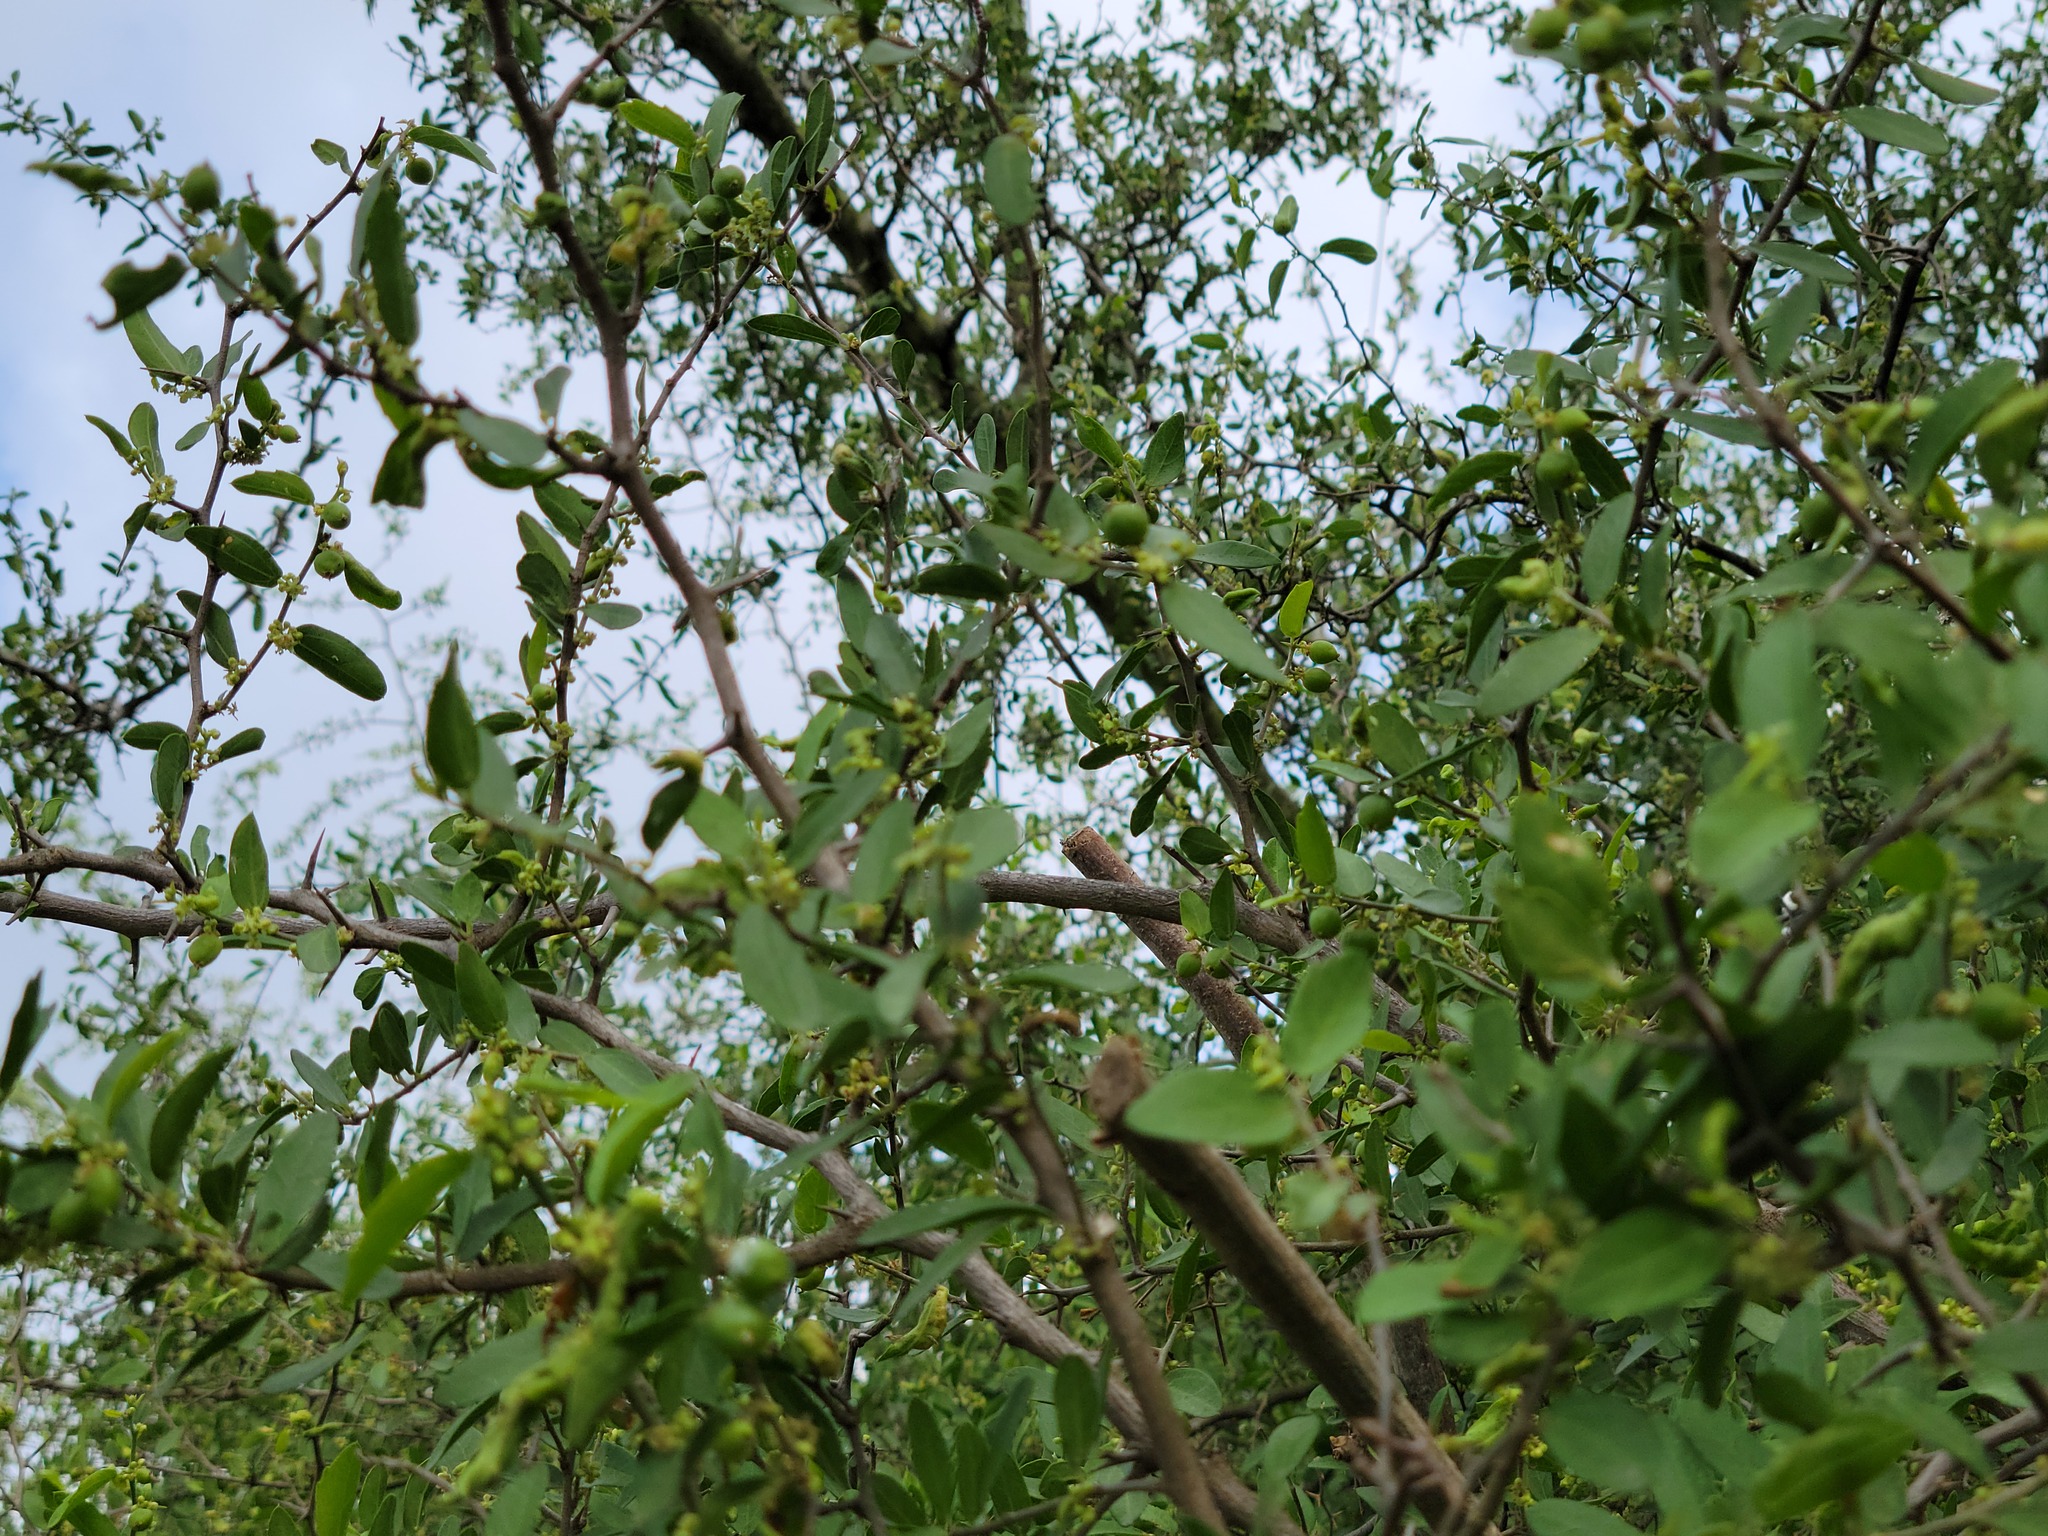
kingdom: Plantae
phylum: Tracheophyta
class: Magnoliopsida
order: Rosales
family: Cannabaceae
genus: Celtis
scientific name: Celtis pallida
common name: Desert hackberry
